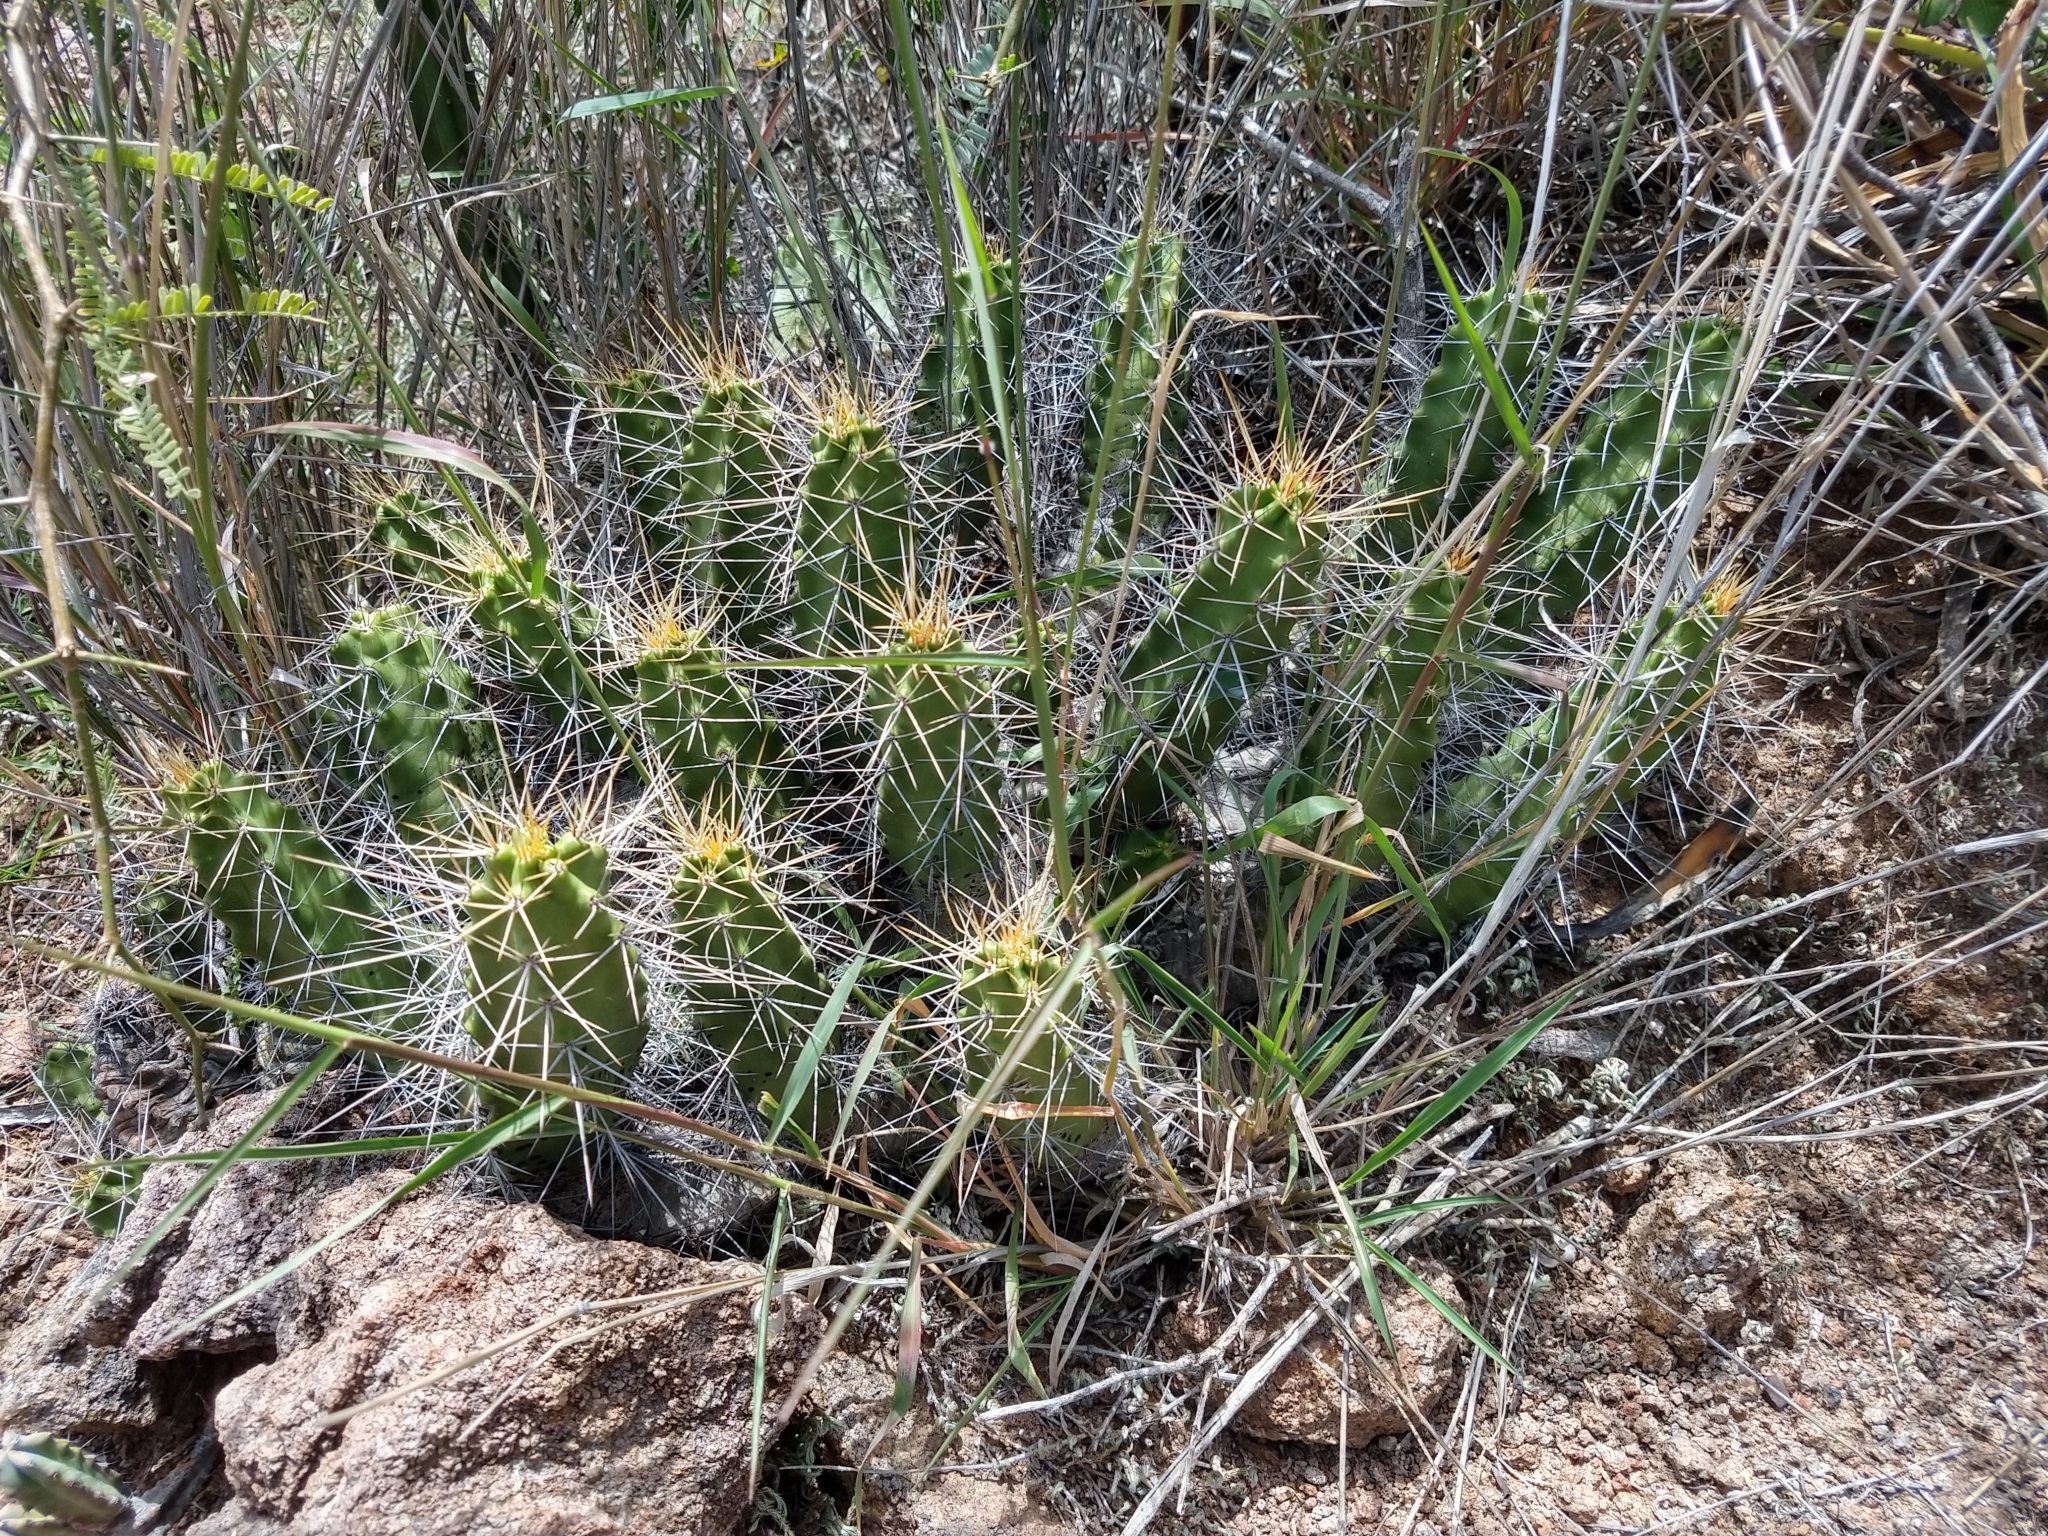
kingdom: Plantae
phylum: Tracheophyta
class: Magnoliopsida
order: Caryophyllales
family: Cactaceae
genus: Echinocereus
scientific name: Echinocereus pentalophus
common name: Ladyfinger cactus
